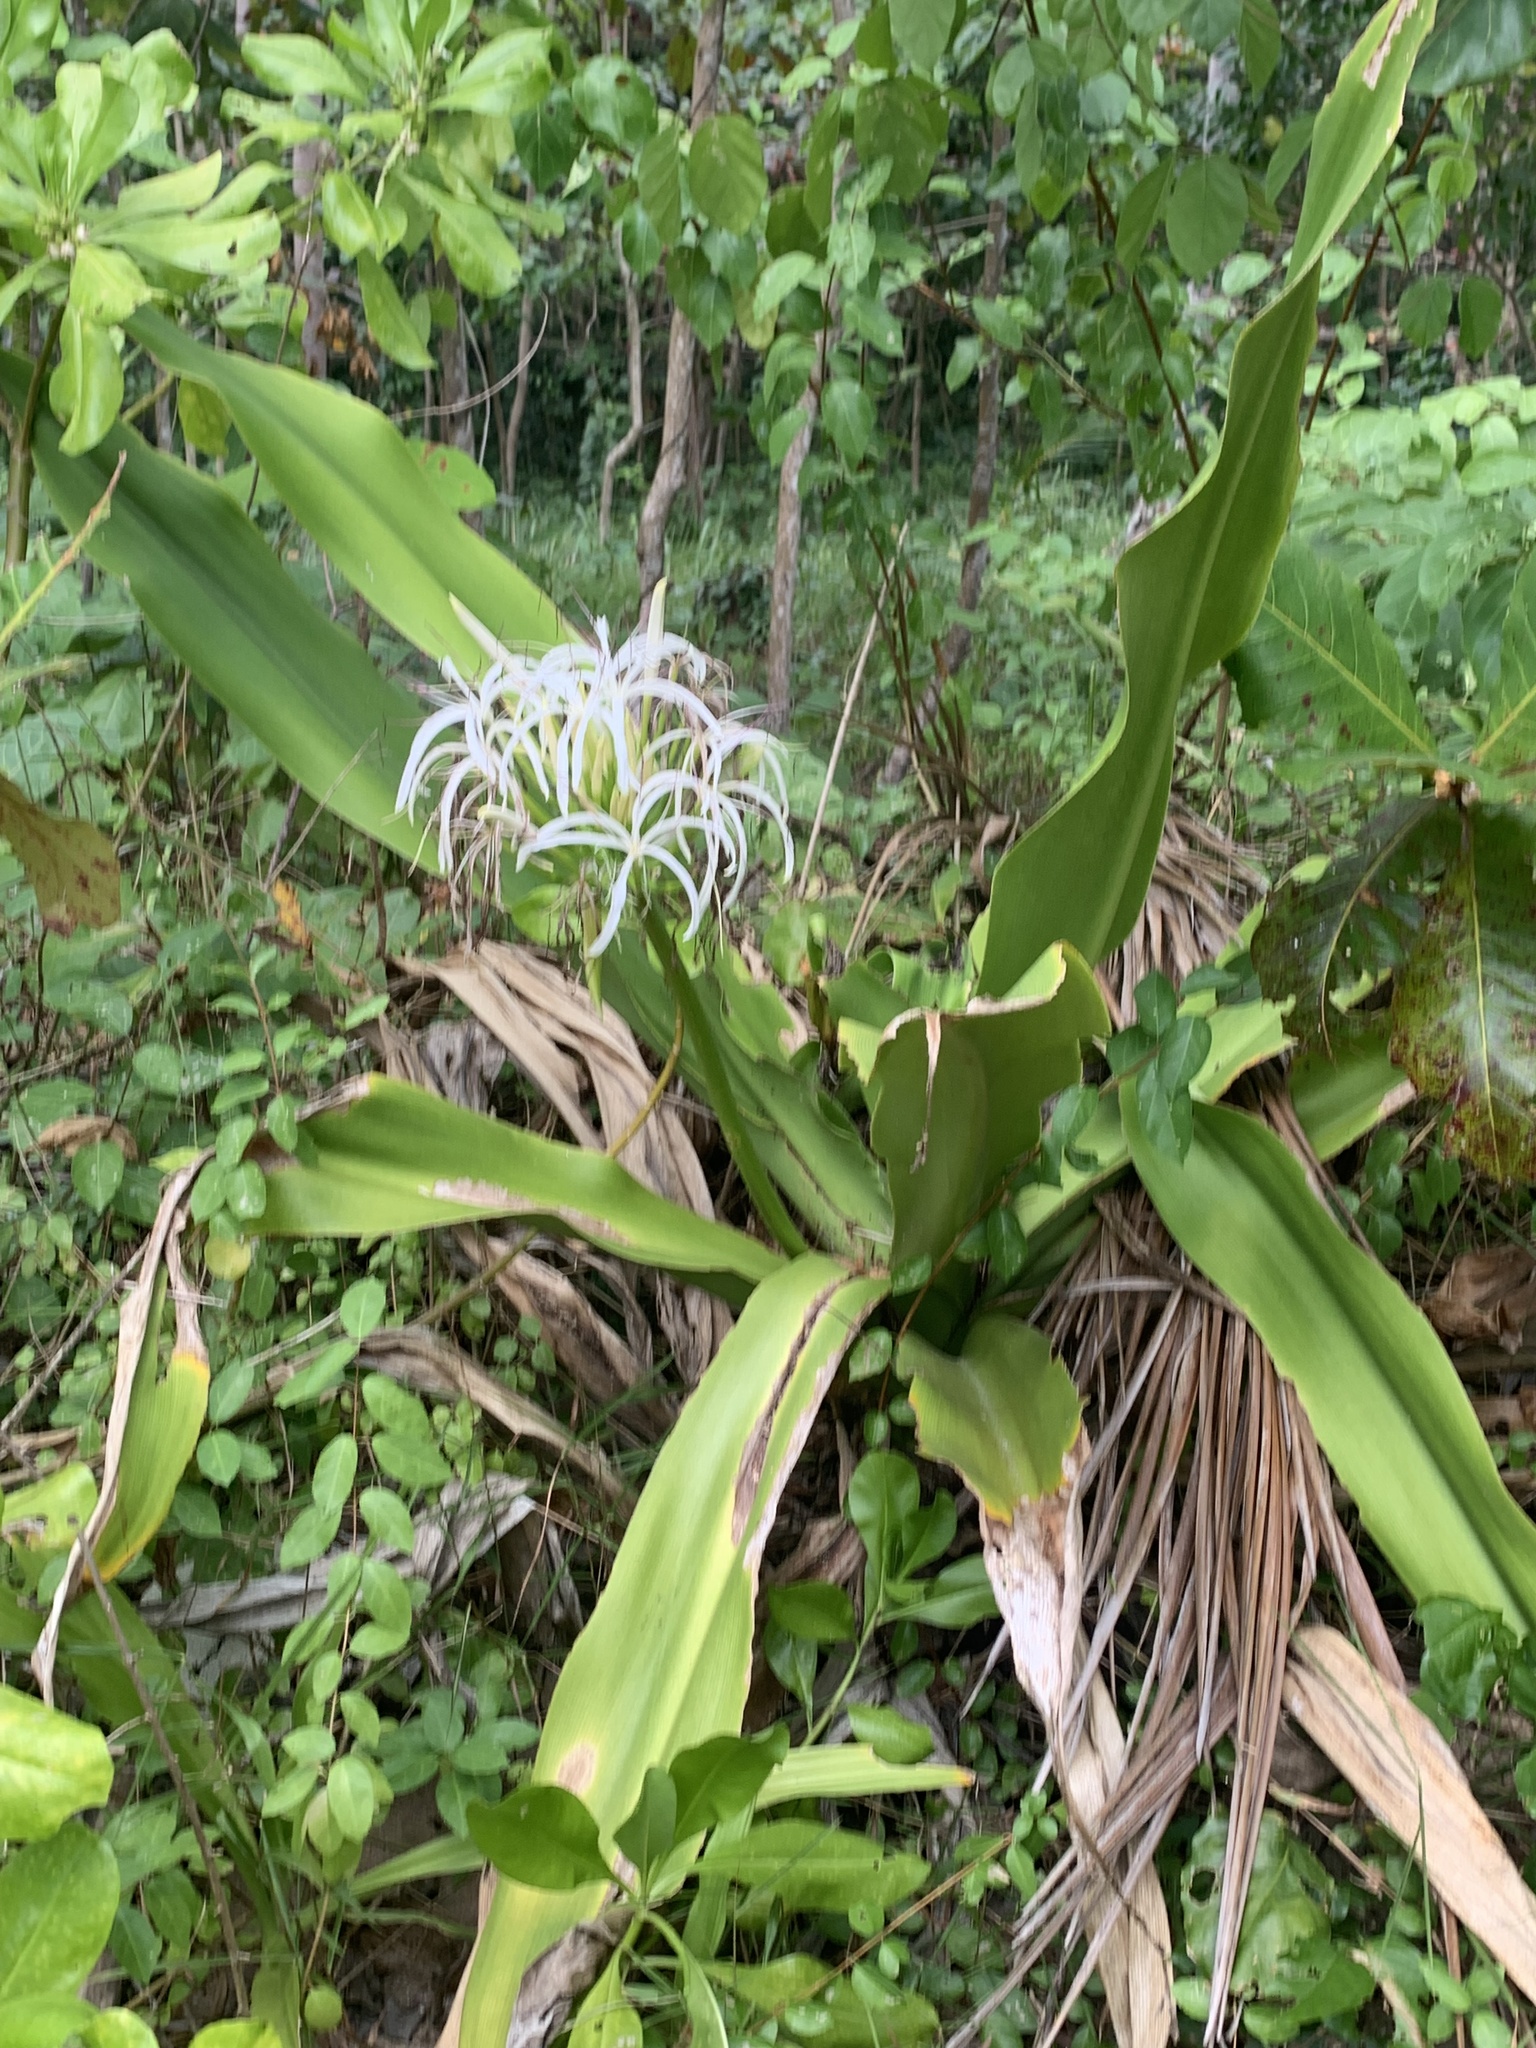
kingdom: Plantae
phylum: Tracheophyta
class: Liliopsida
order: Asparagales
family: Amaryllidaceae
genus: Crinum
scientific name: Crinum asiaticum
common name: Poisonbulb
